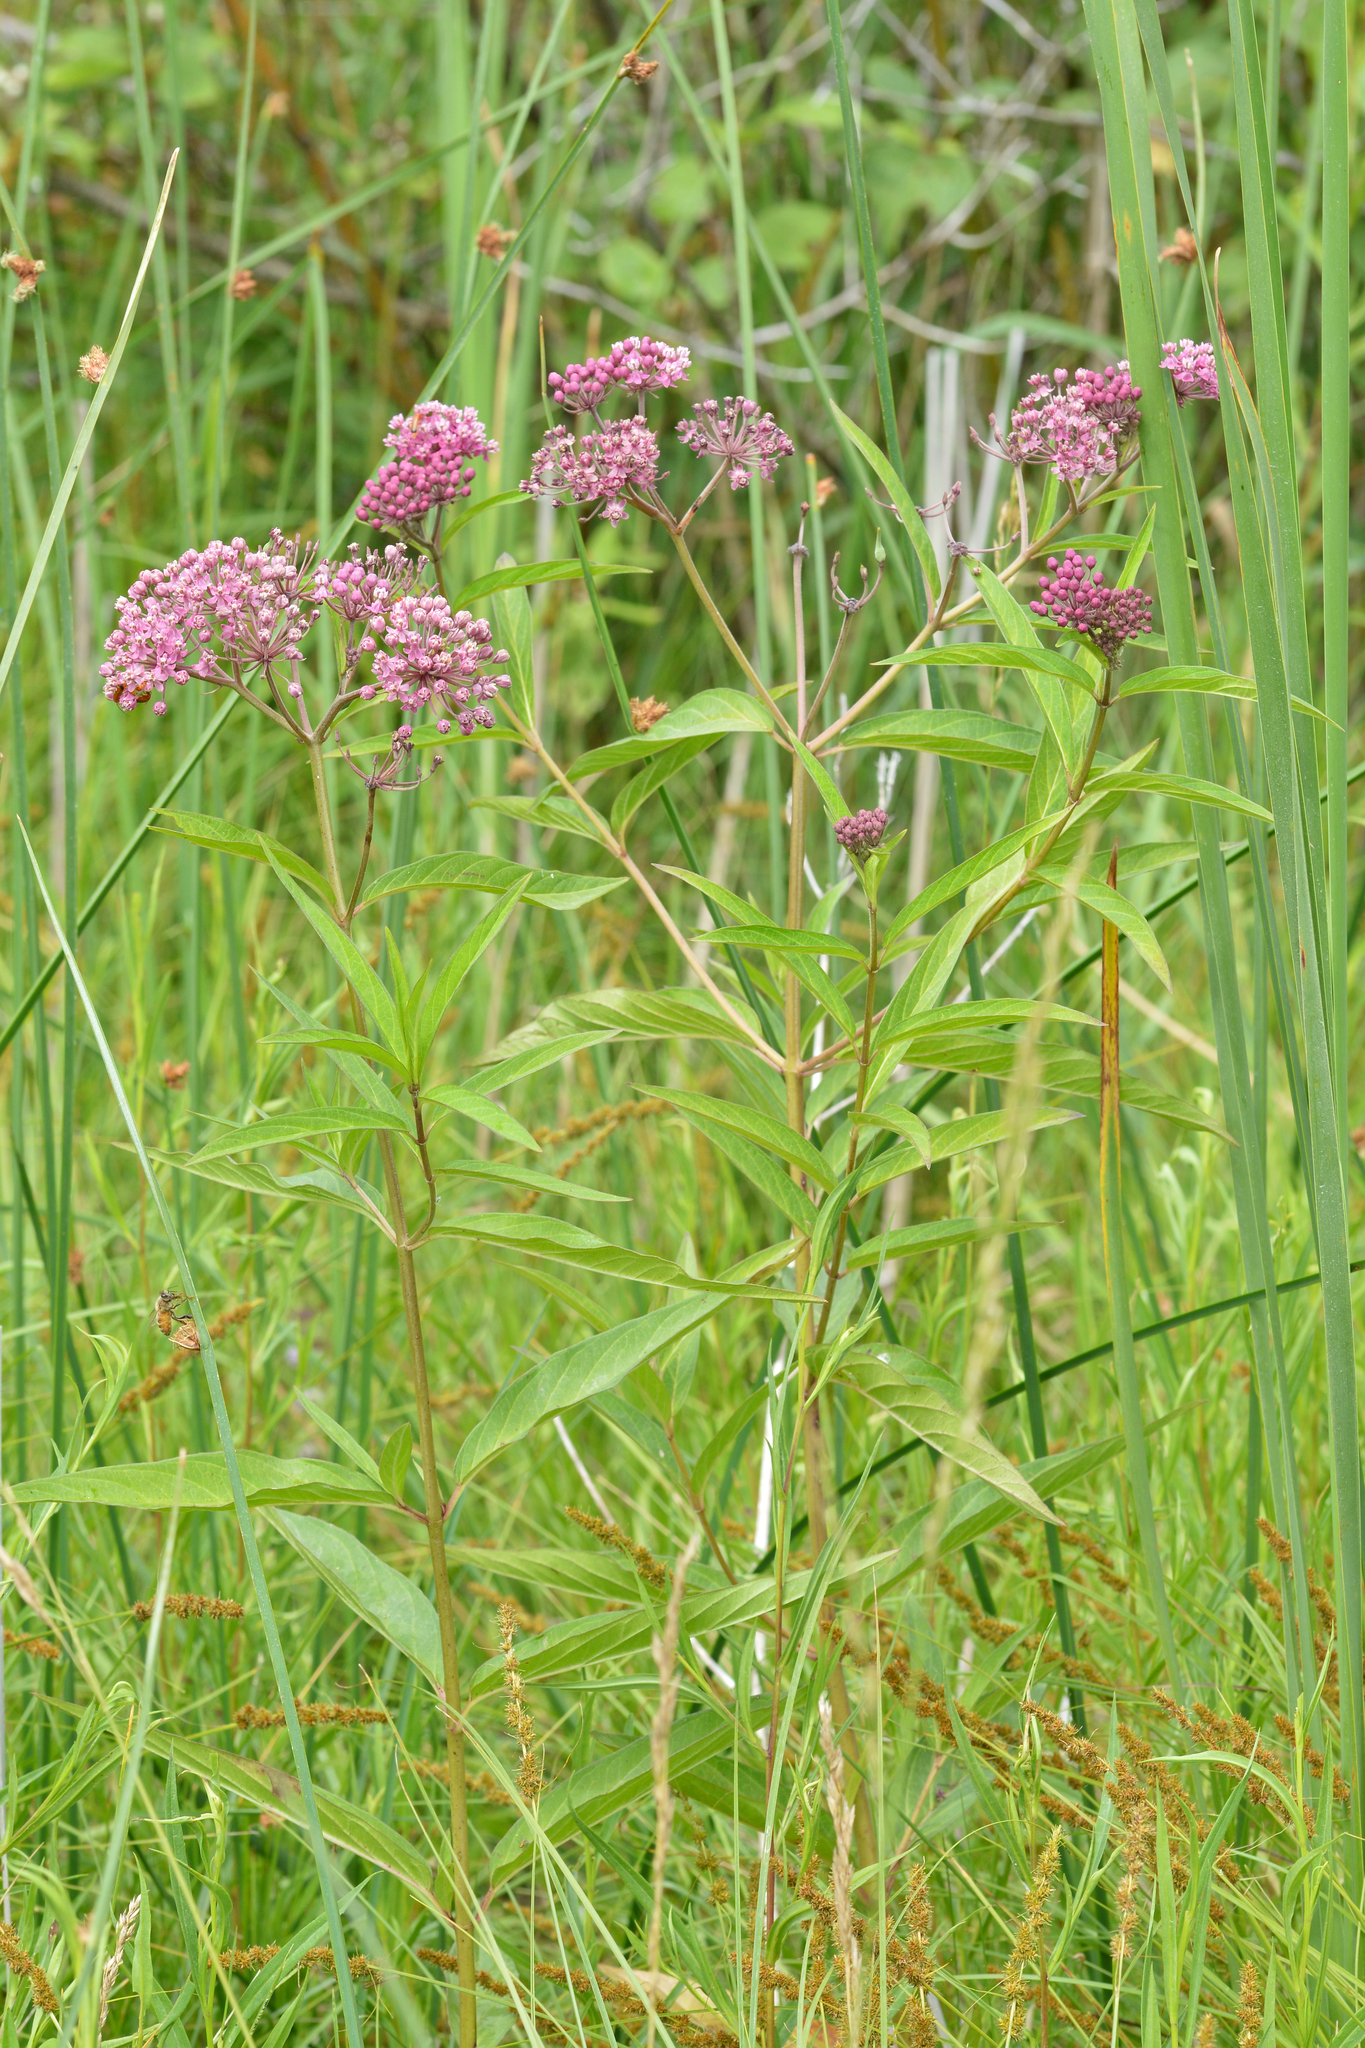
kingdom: Plantae
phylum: Tracheophyta
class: Magnoliopsida
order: Gentianales
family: Apocynaceae
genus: Asclepias
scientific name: Asclepias incarnata
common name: Swamp milkweed
